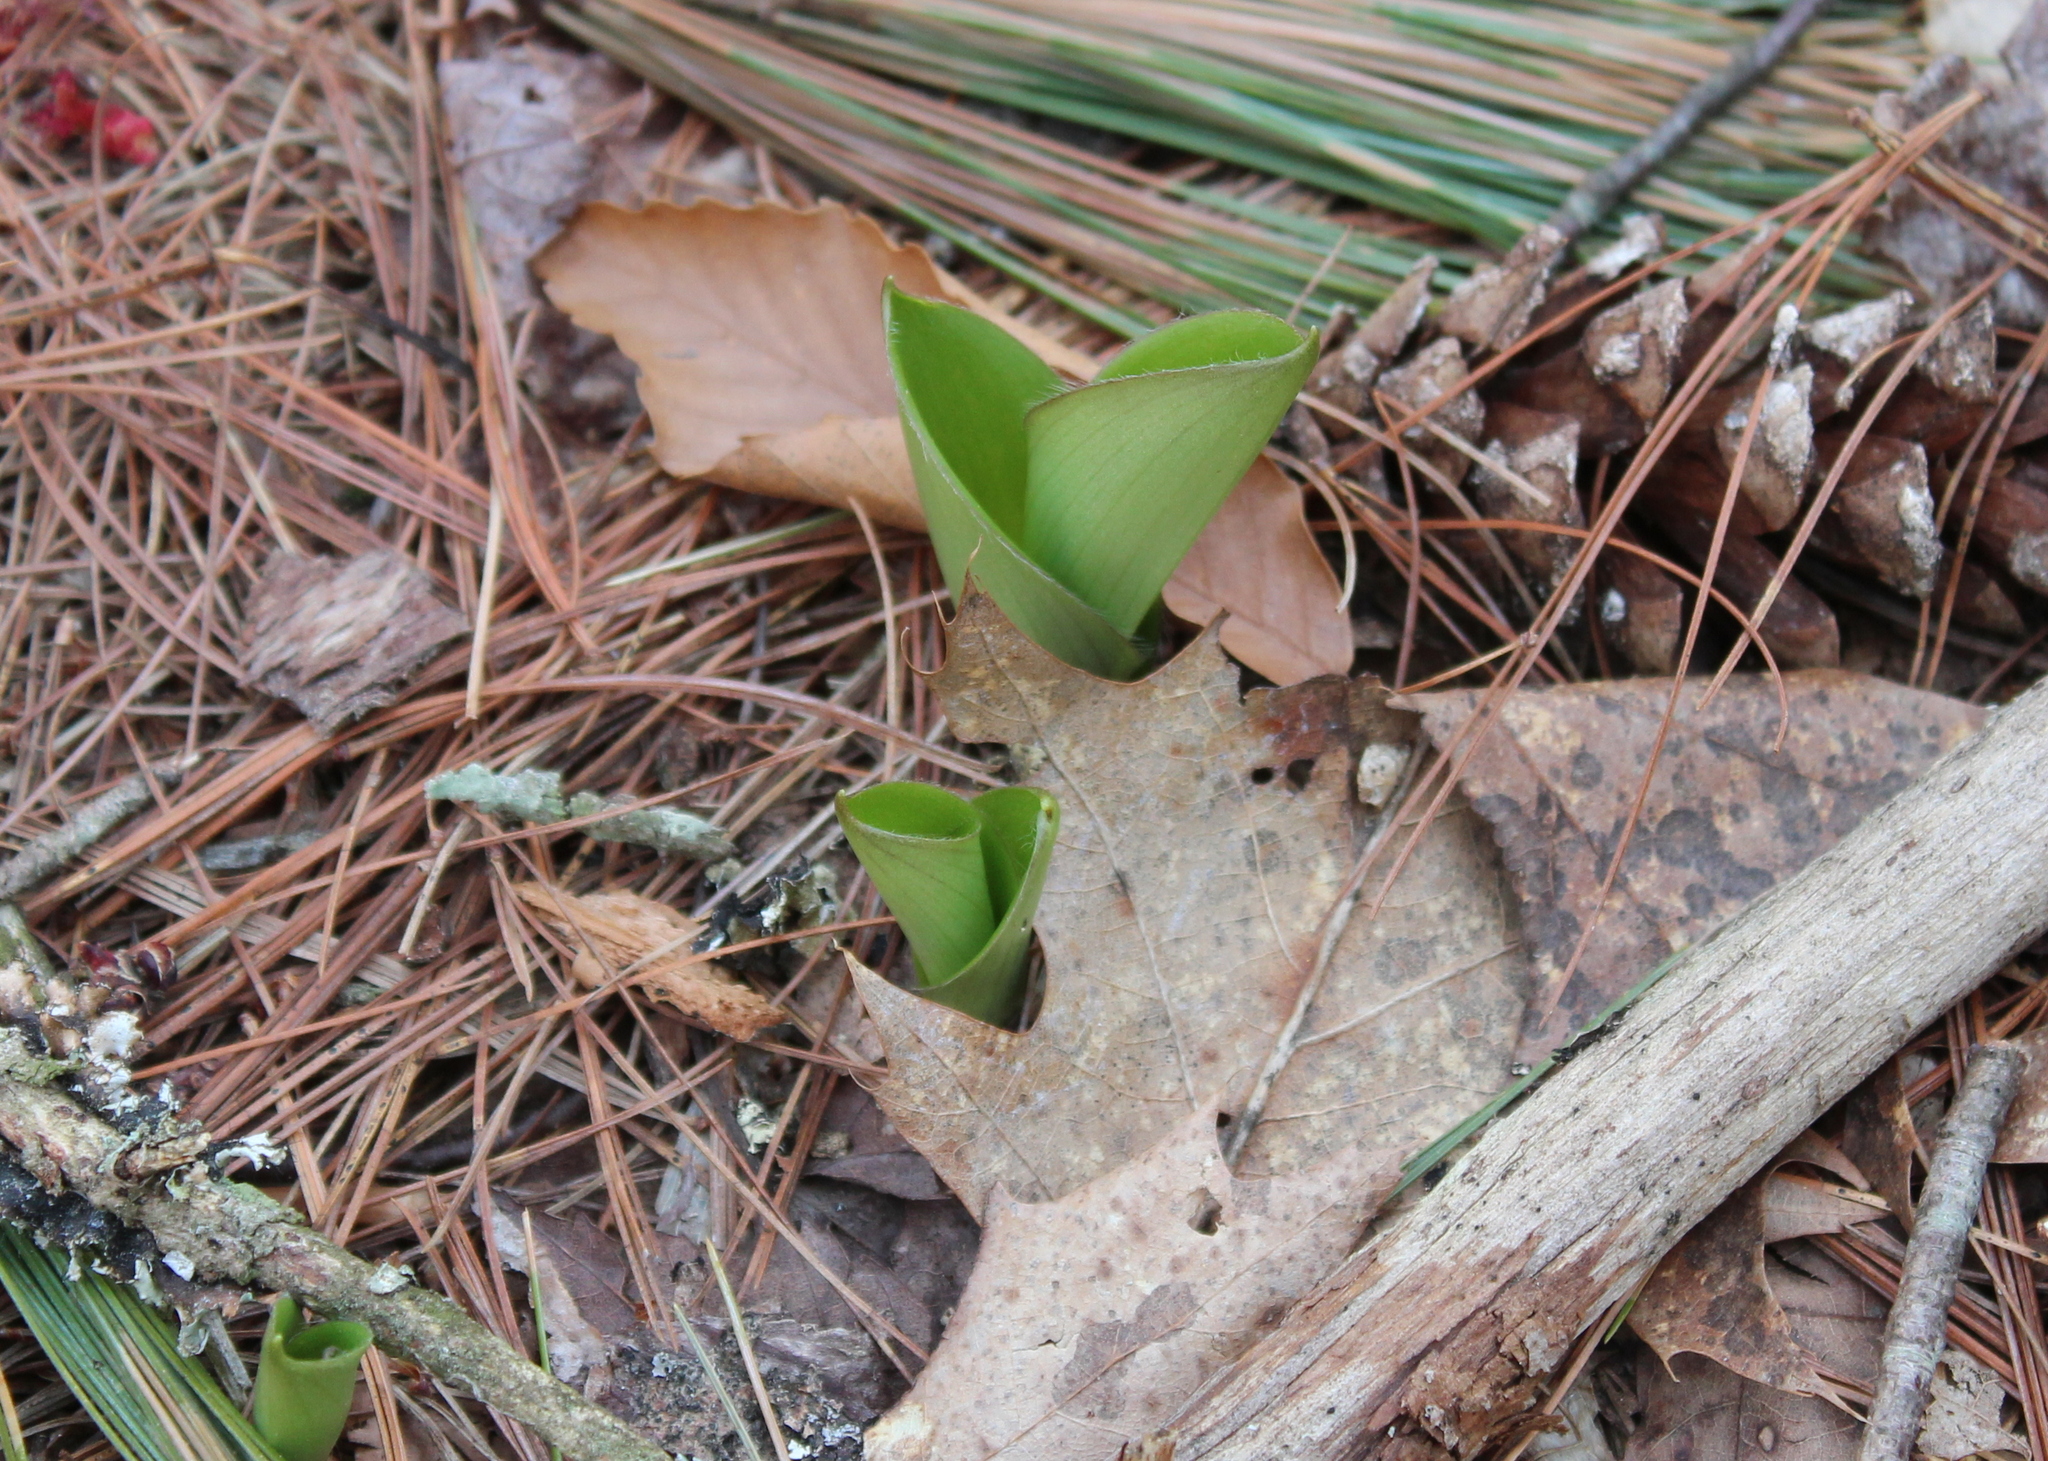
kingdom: Plantae
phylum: Tracheophyta
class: Liliopsida
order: Liliales
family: Liliaceae
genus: Clintonia
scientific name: Clintonia borealis
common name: Yellow clintonia
